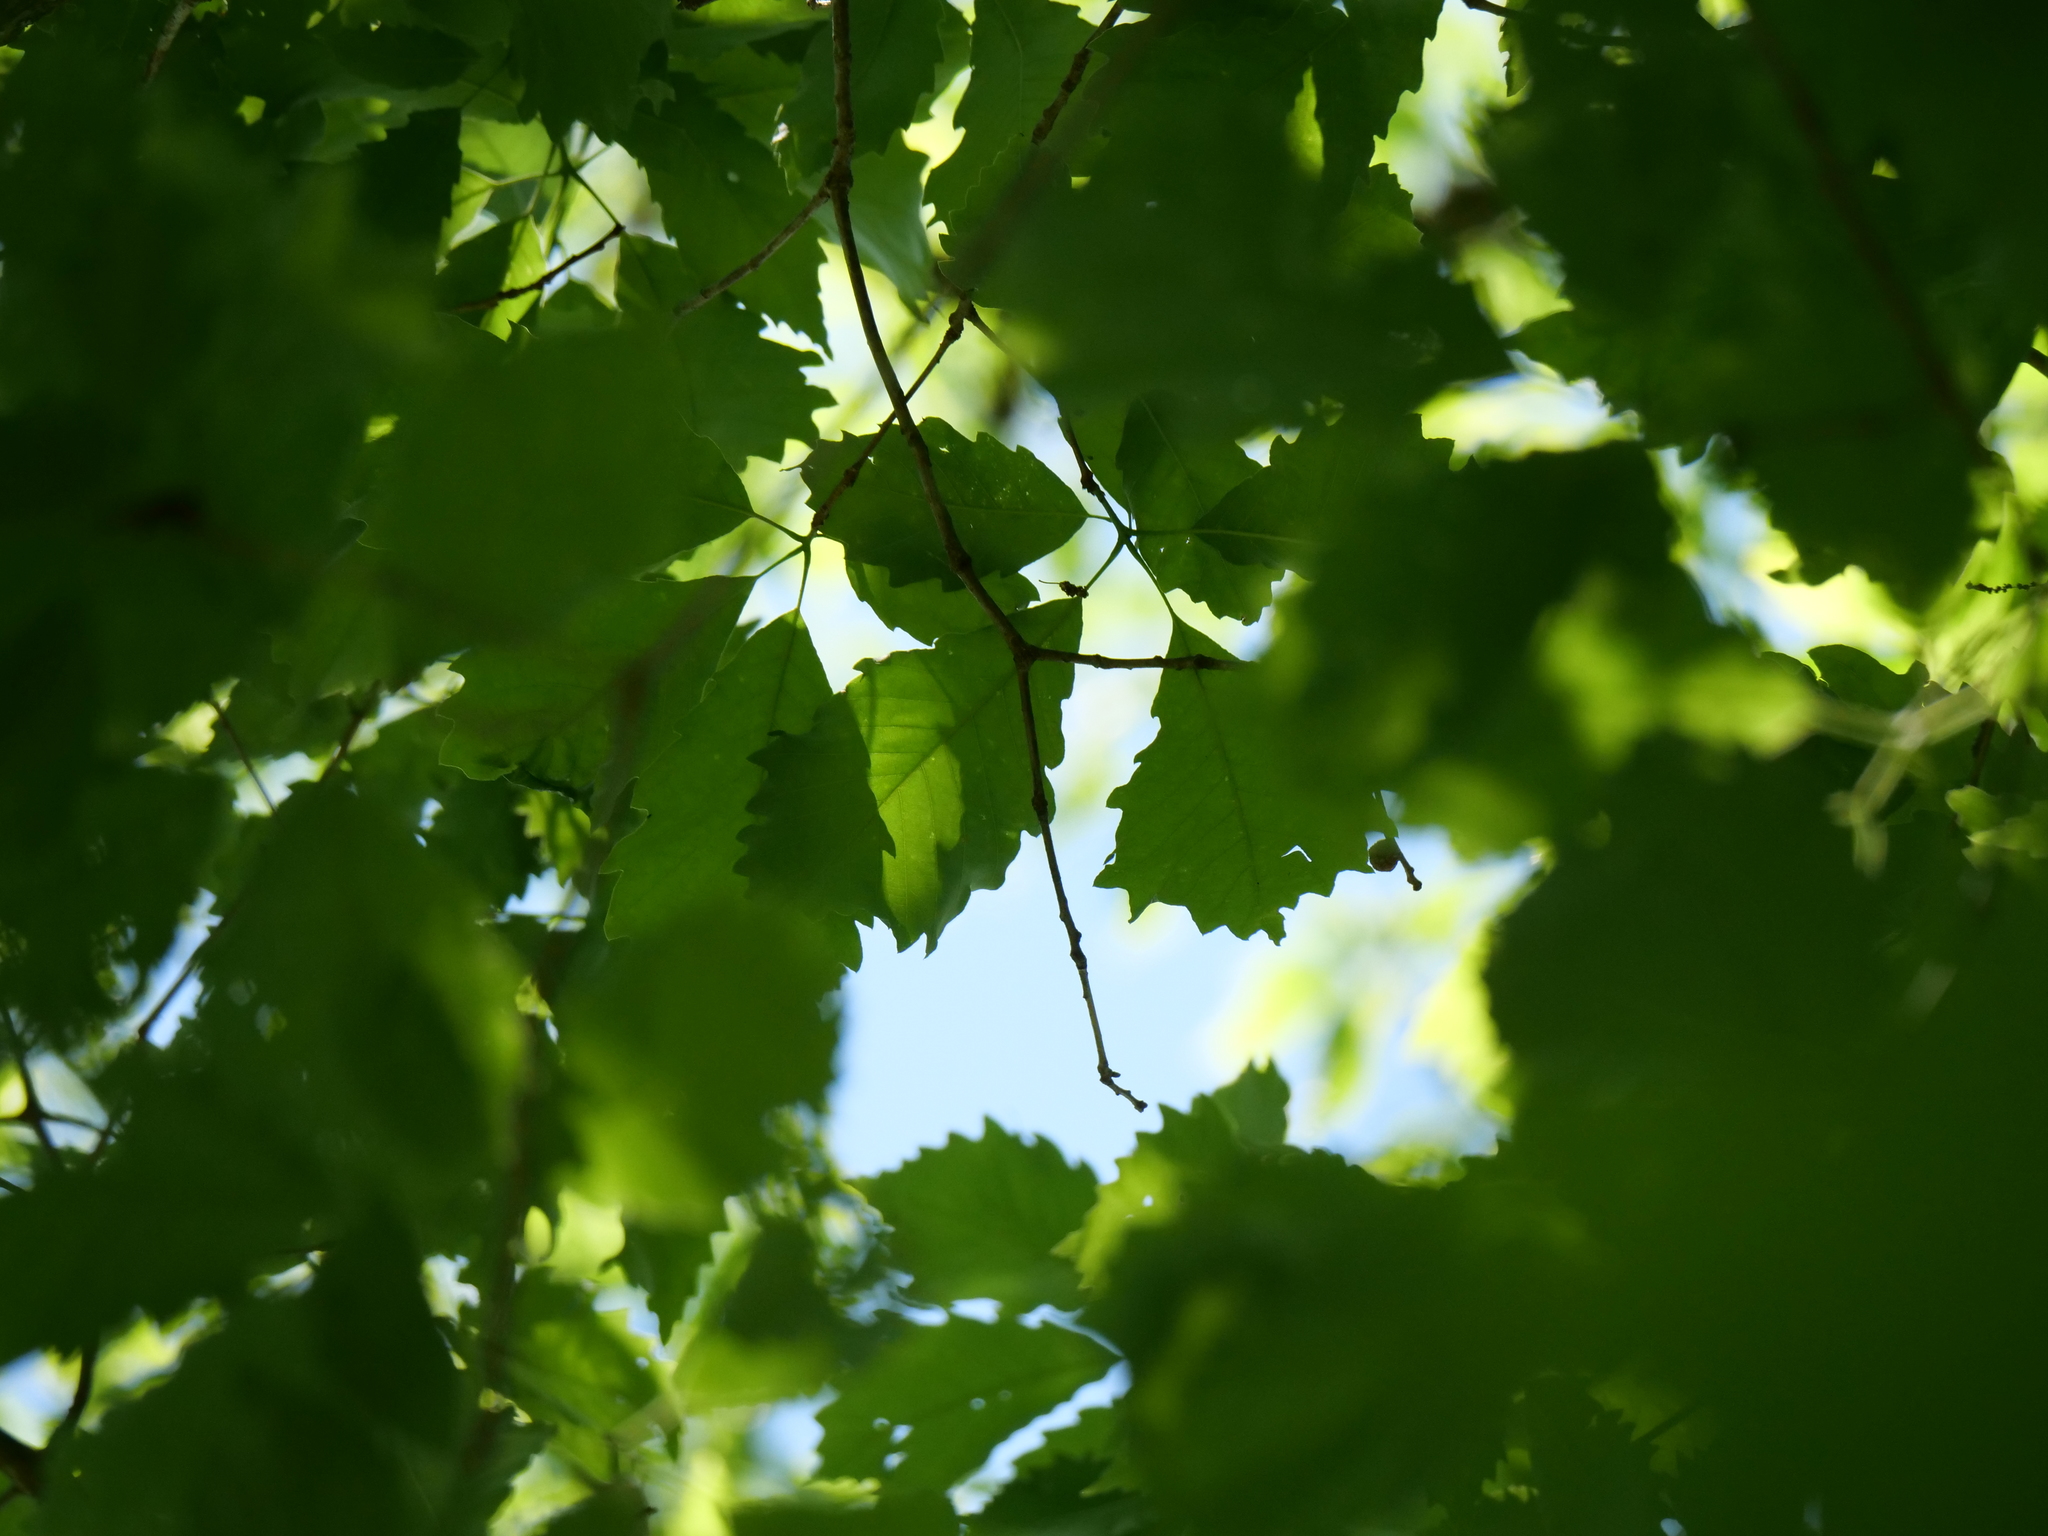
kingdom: Plantae
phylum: Tracheophyta
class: Magnoliopsida
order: Fagales
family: Fagaceae
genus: Quercus
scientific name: Quercus muehlenbergii
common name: Chinkapin oak
